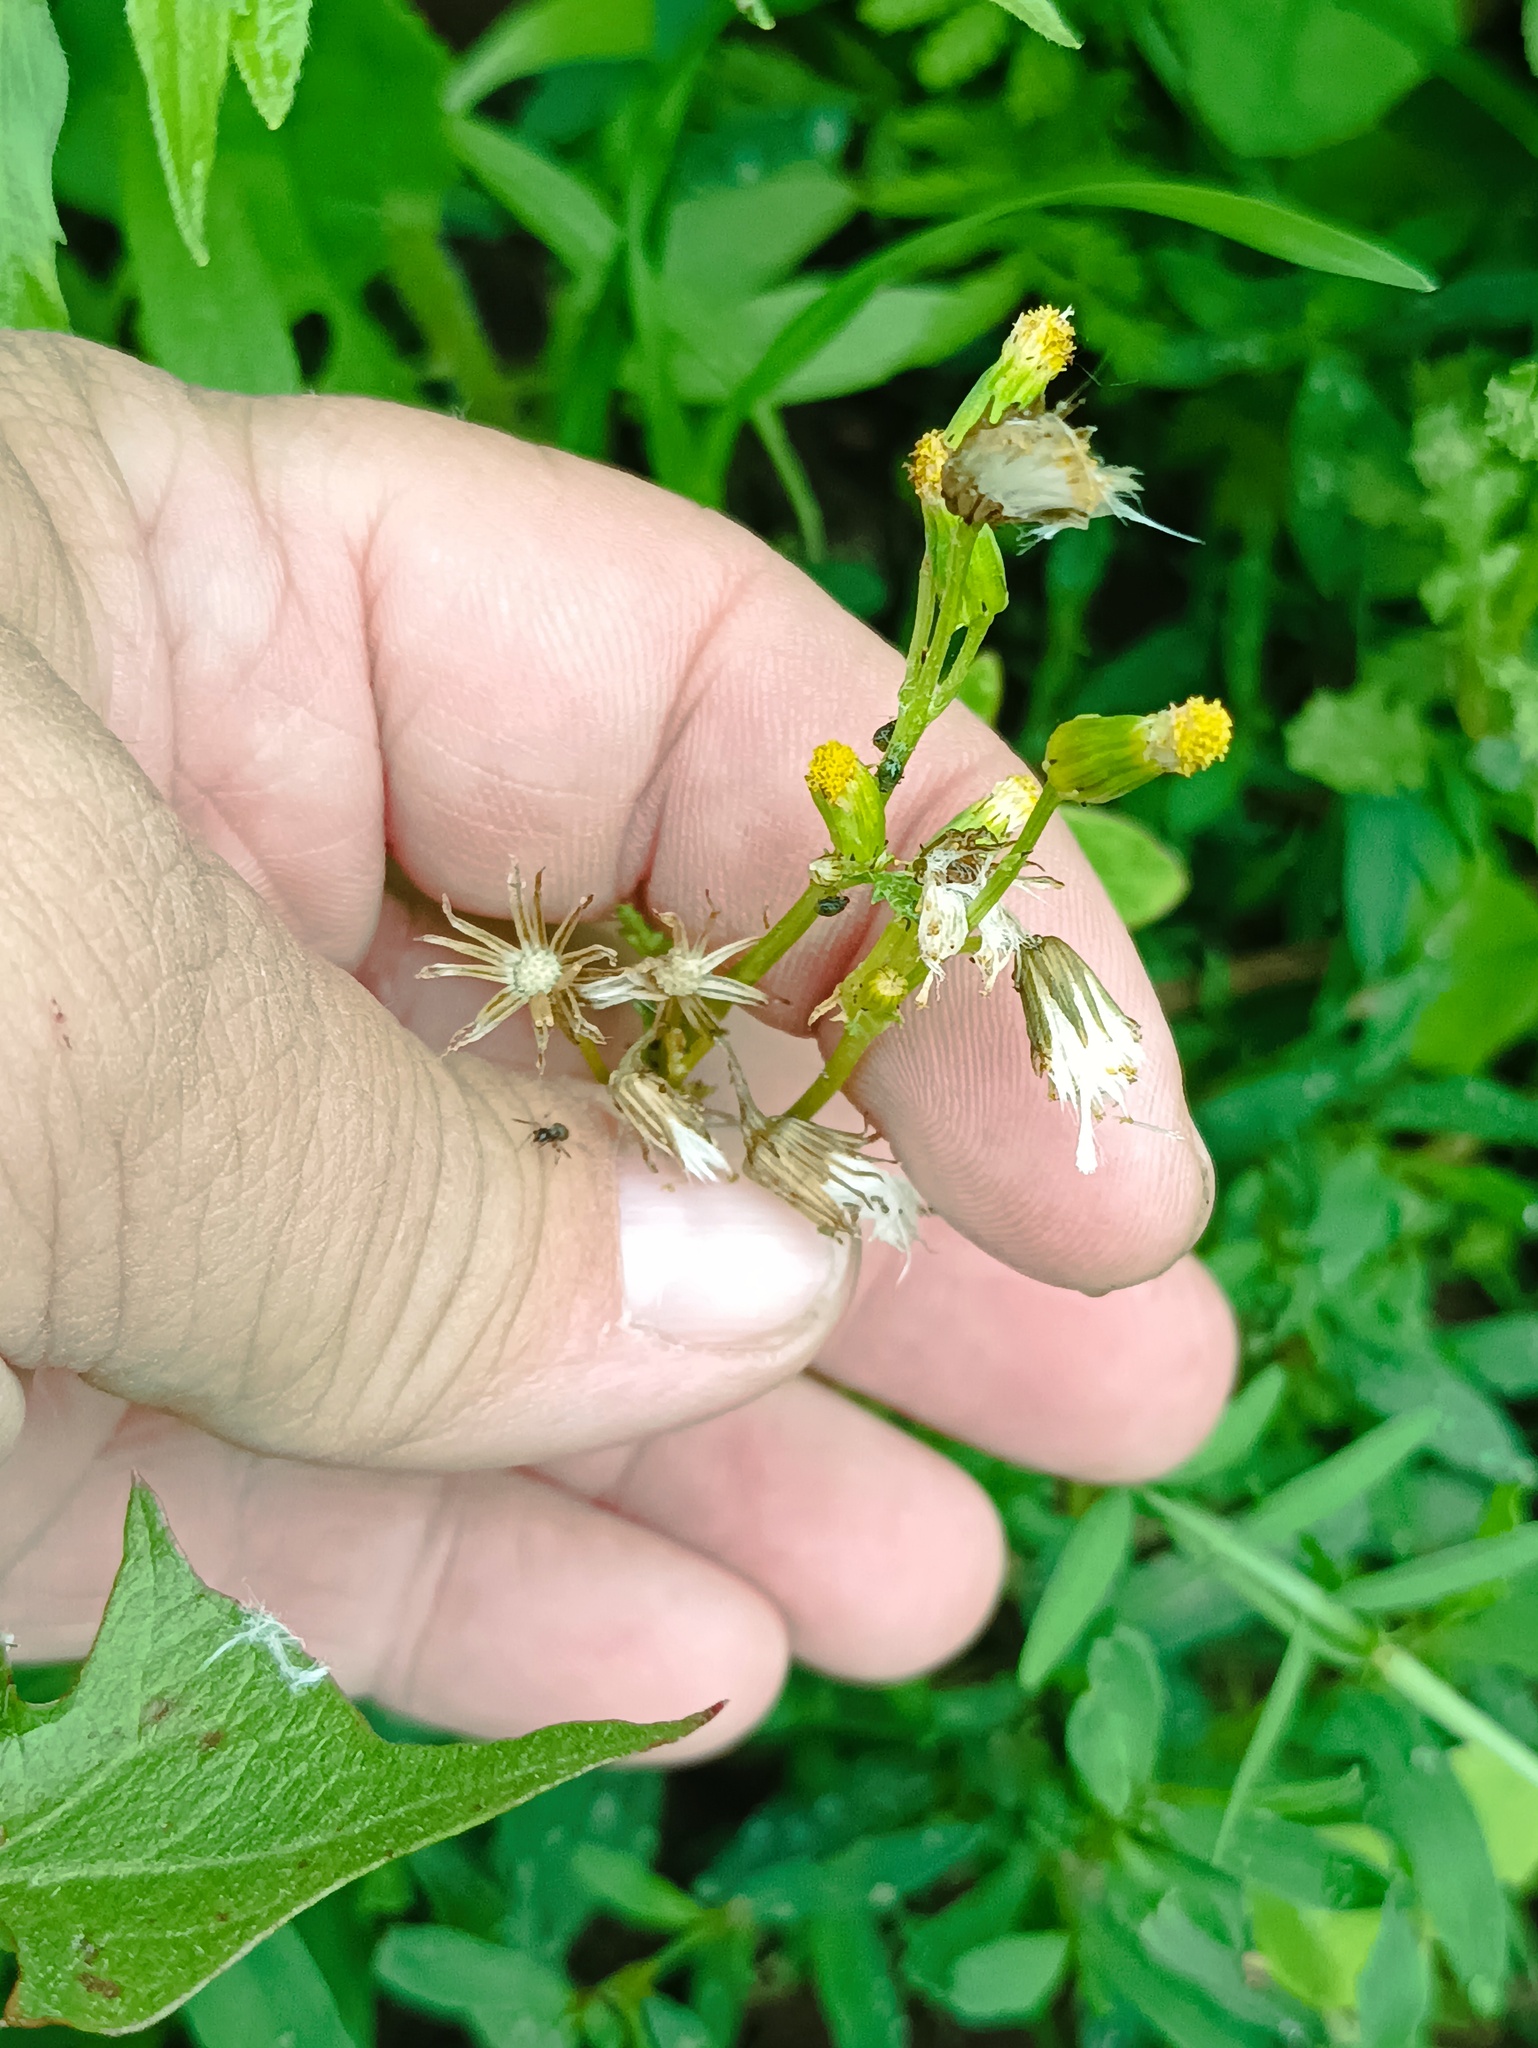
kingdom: Plantae
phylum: Tracheophyta
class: Magnoliopsida
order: Asterales
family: Asteraceae
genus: Senecio
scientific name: Senecio vulgaris
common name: Old-man-in-the-spring
